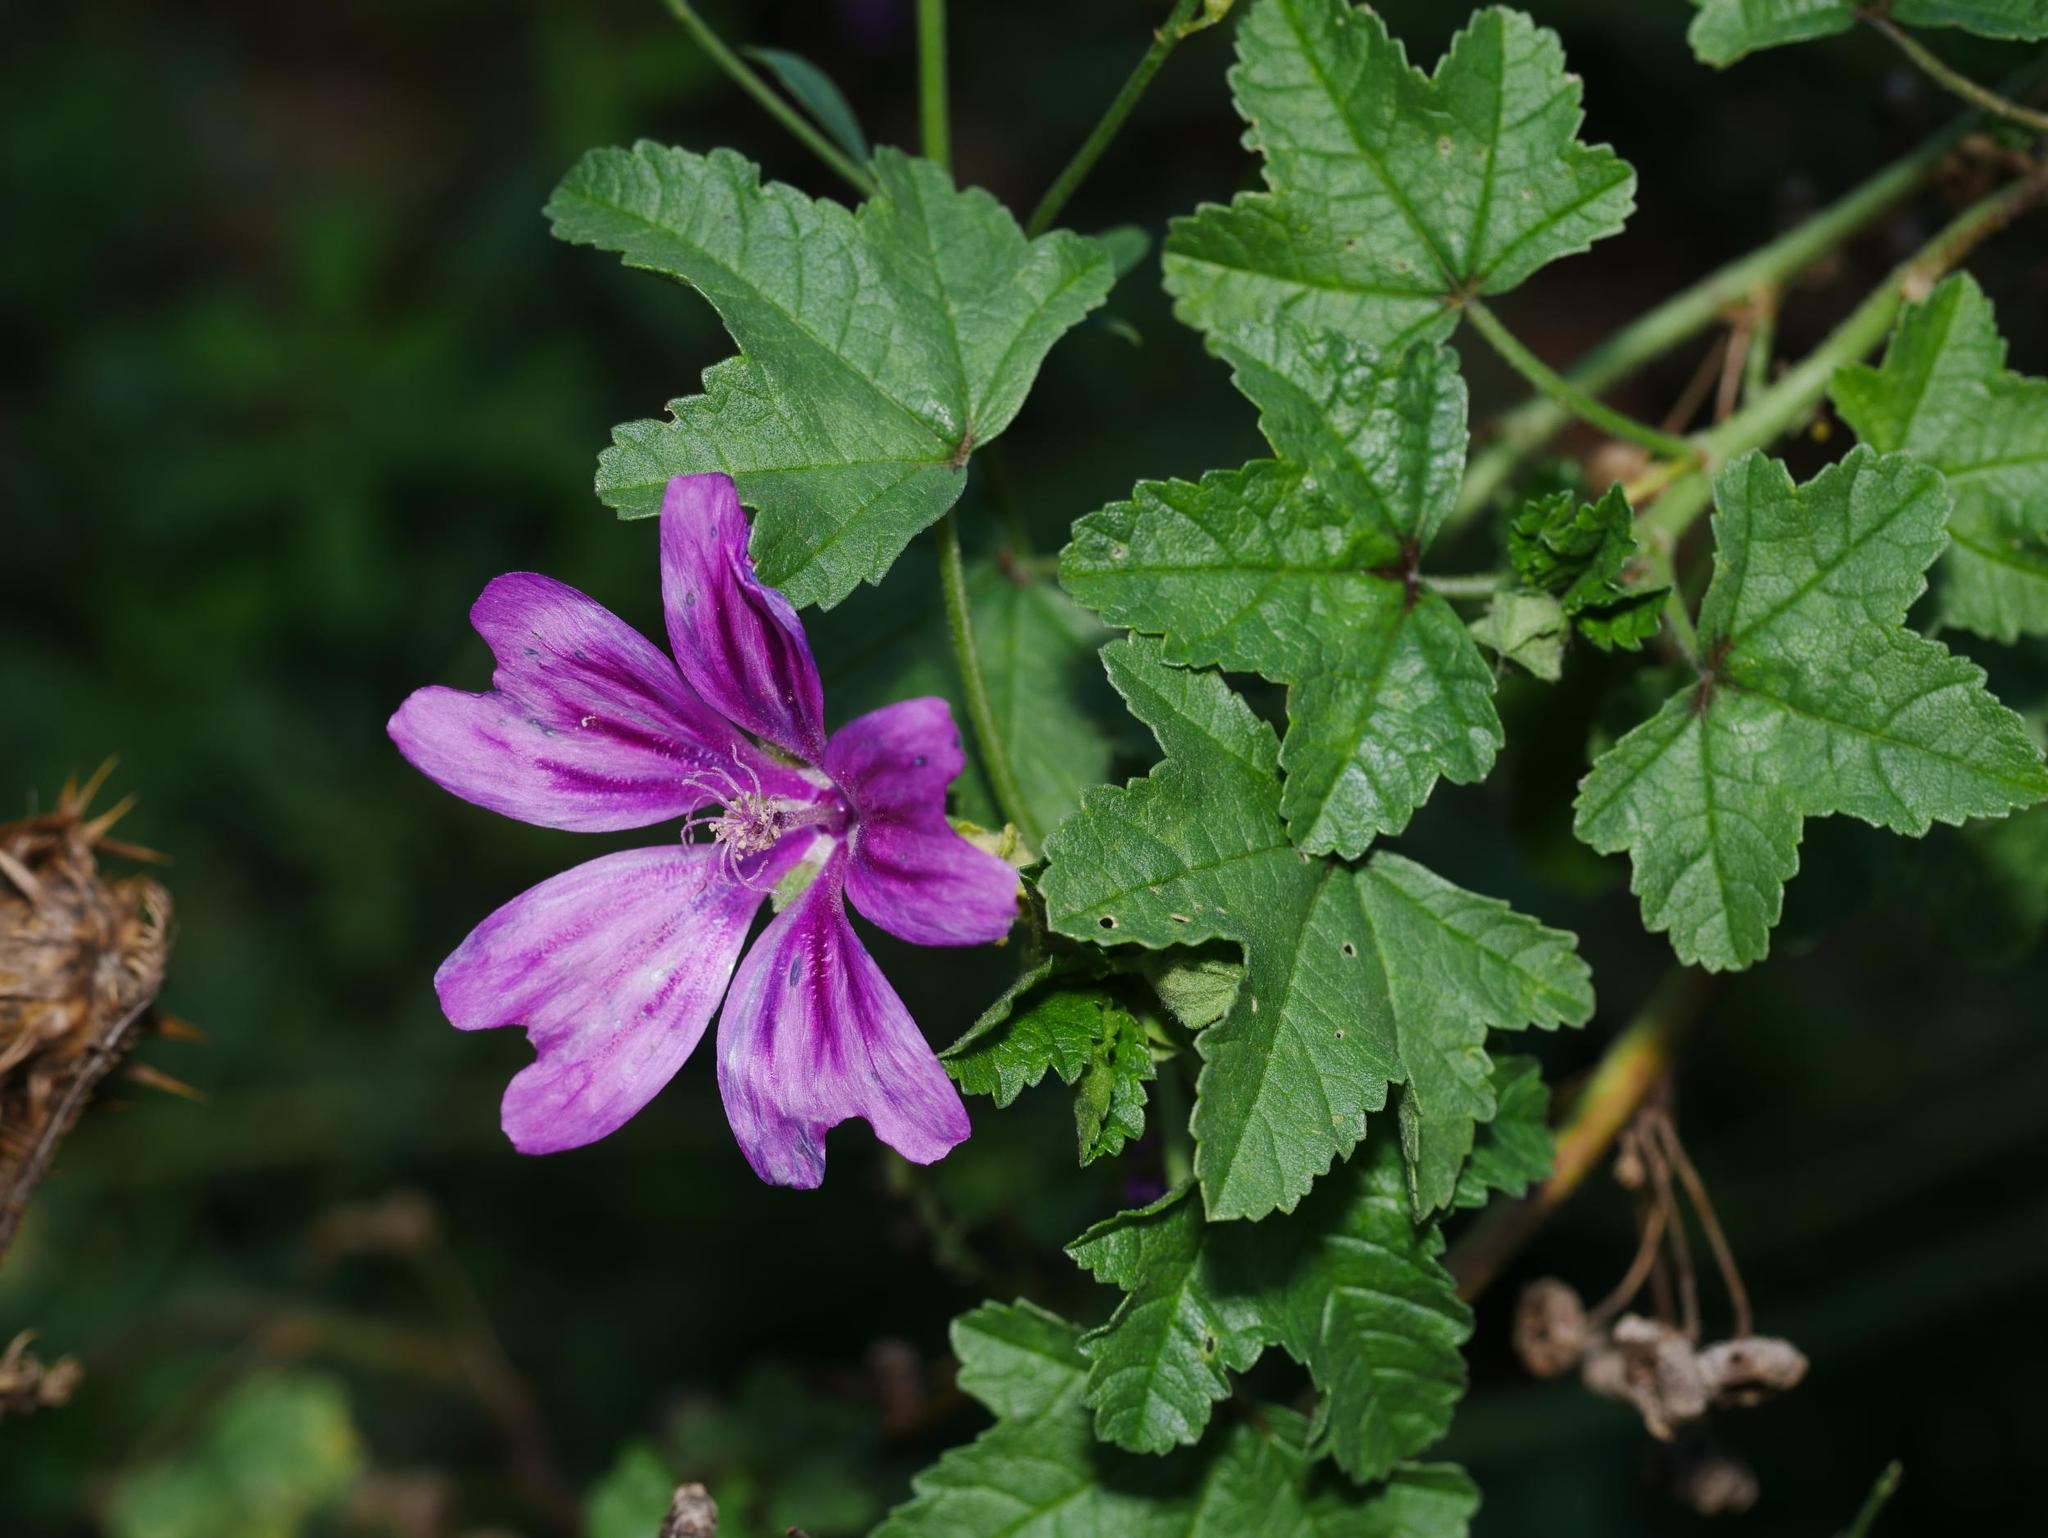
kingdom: Plantae
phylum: Tracheophyta
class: Magnoliopsida
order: Malvales
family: Malvaceae
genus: Malva
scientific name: Malva sylvestris
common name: Common mallow
